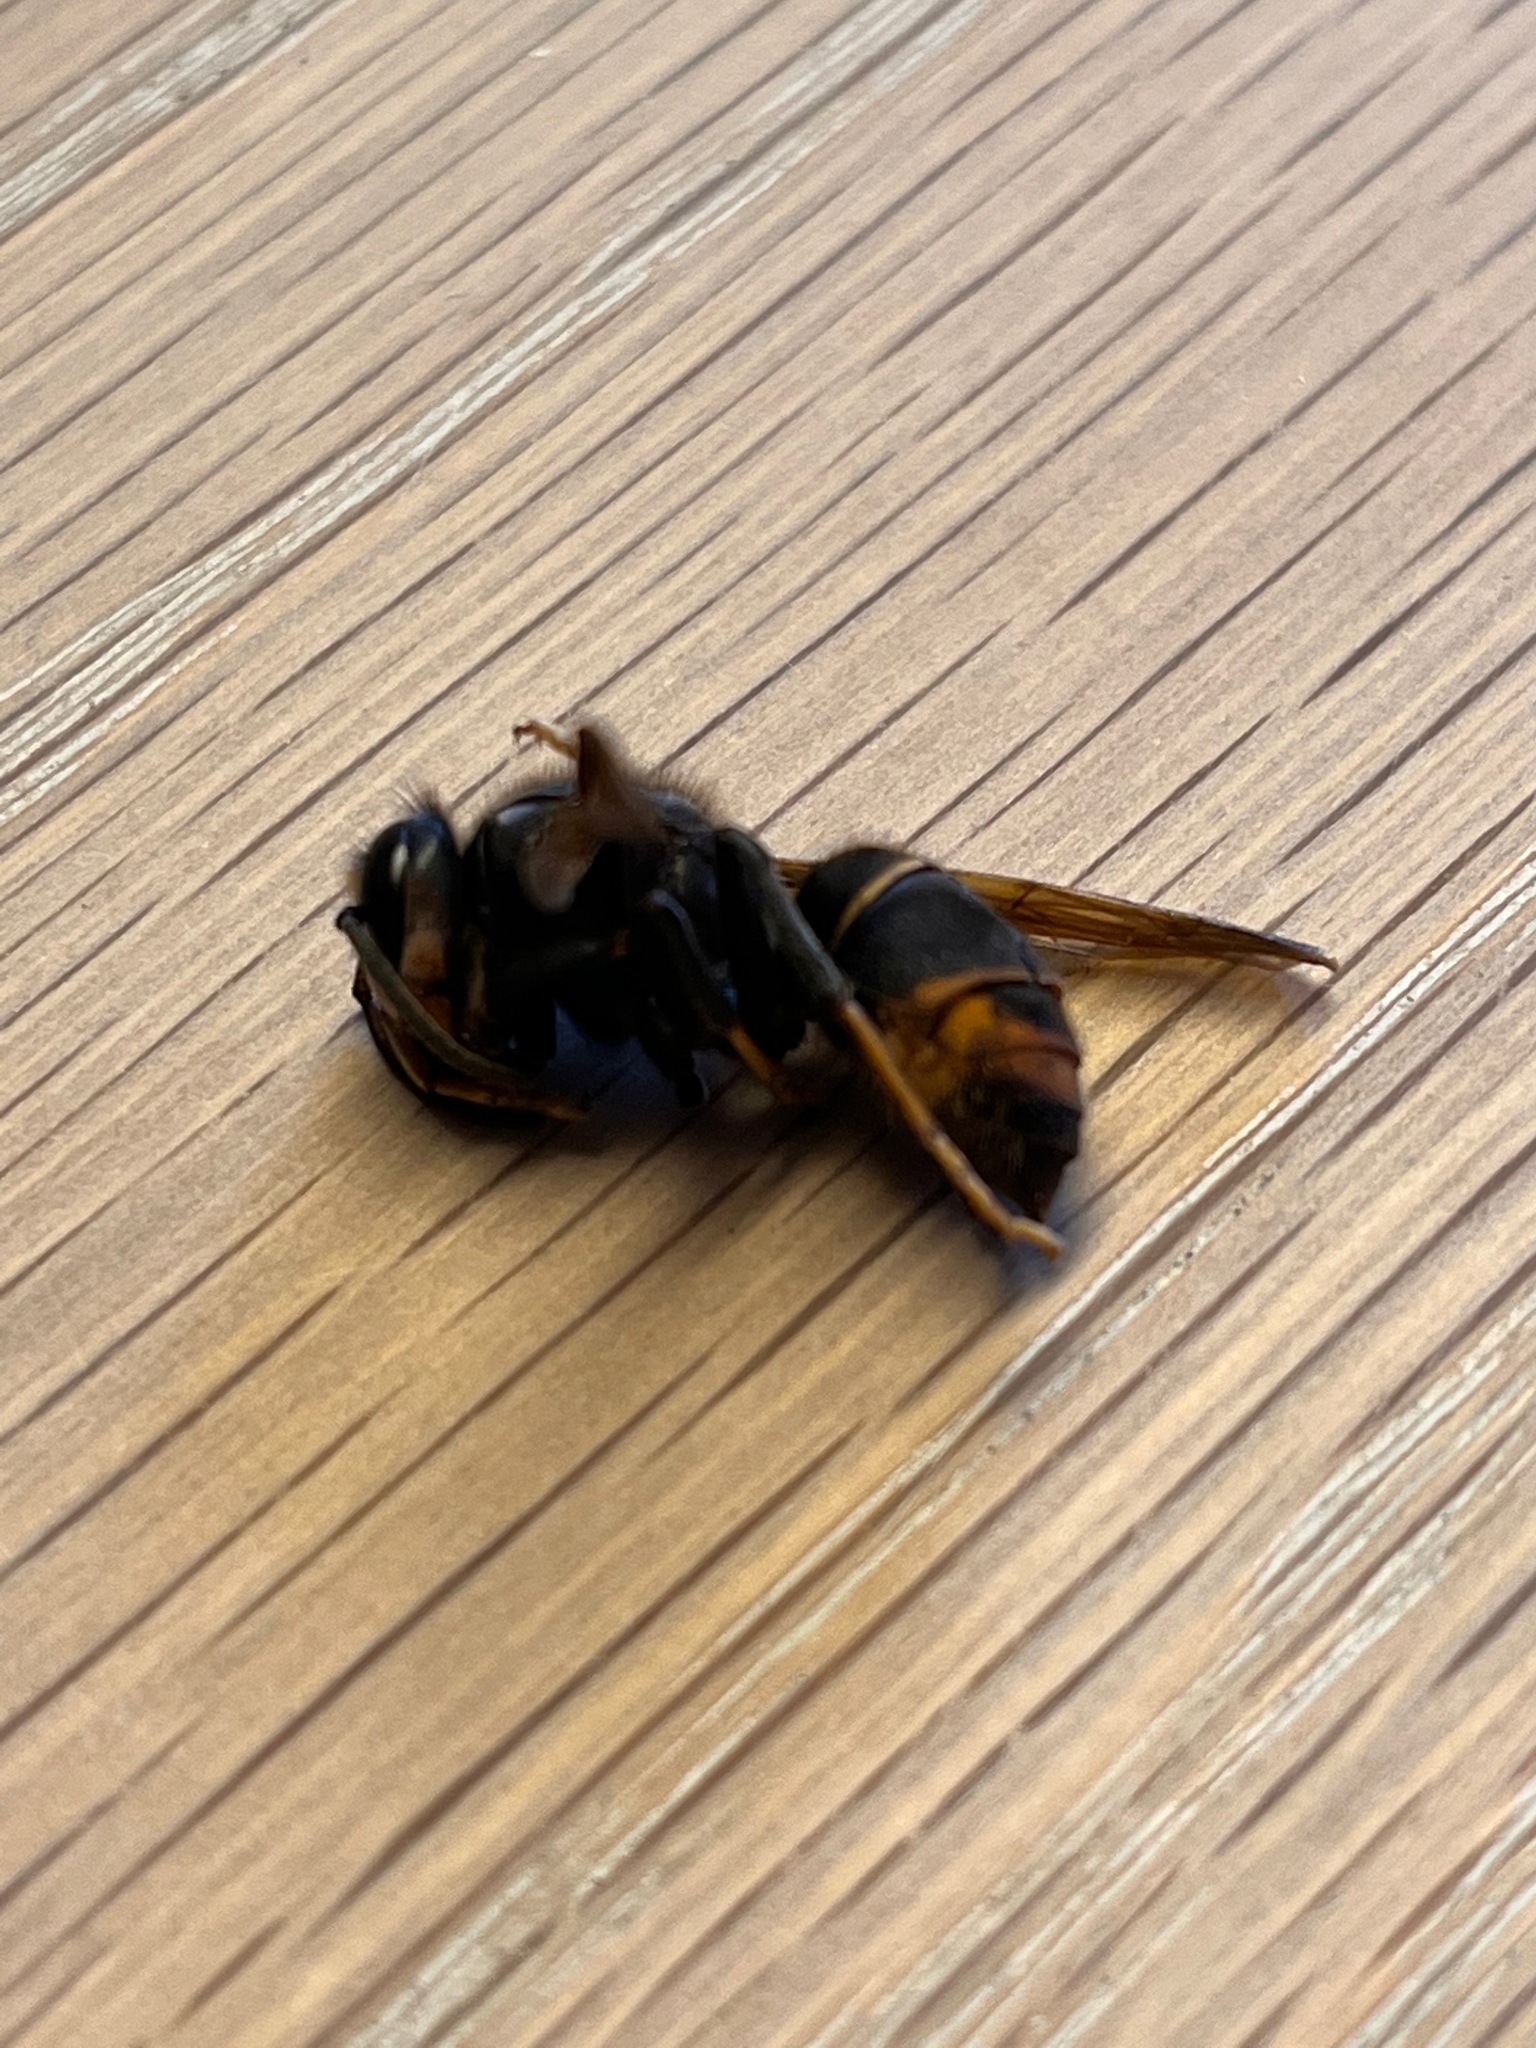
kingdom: Animalia
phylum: Arthropoda
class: Insecta
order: Hymenoptera
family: Vespidae
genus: Vespa
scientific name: Vespa velutina
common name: Asian hornet
